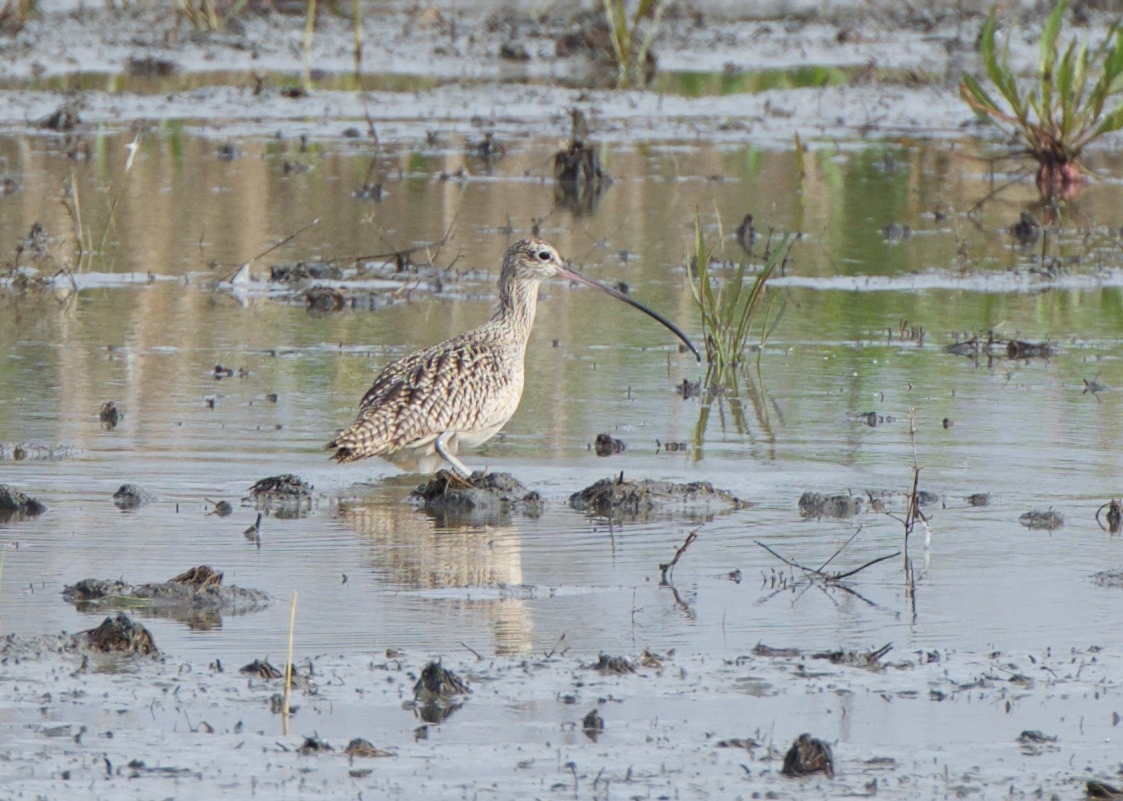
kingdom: Animalia
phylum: Chordata
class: Aves
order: Charadriiformes
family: Scolopacidae
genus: Numenius
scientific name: Numenius americanus
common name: Long-billed curlew
